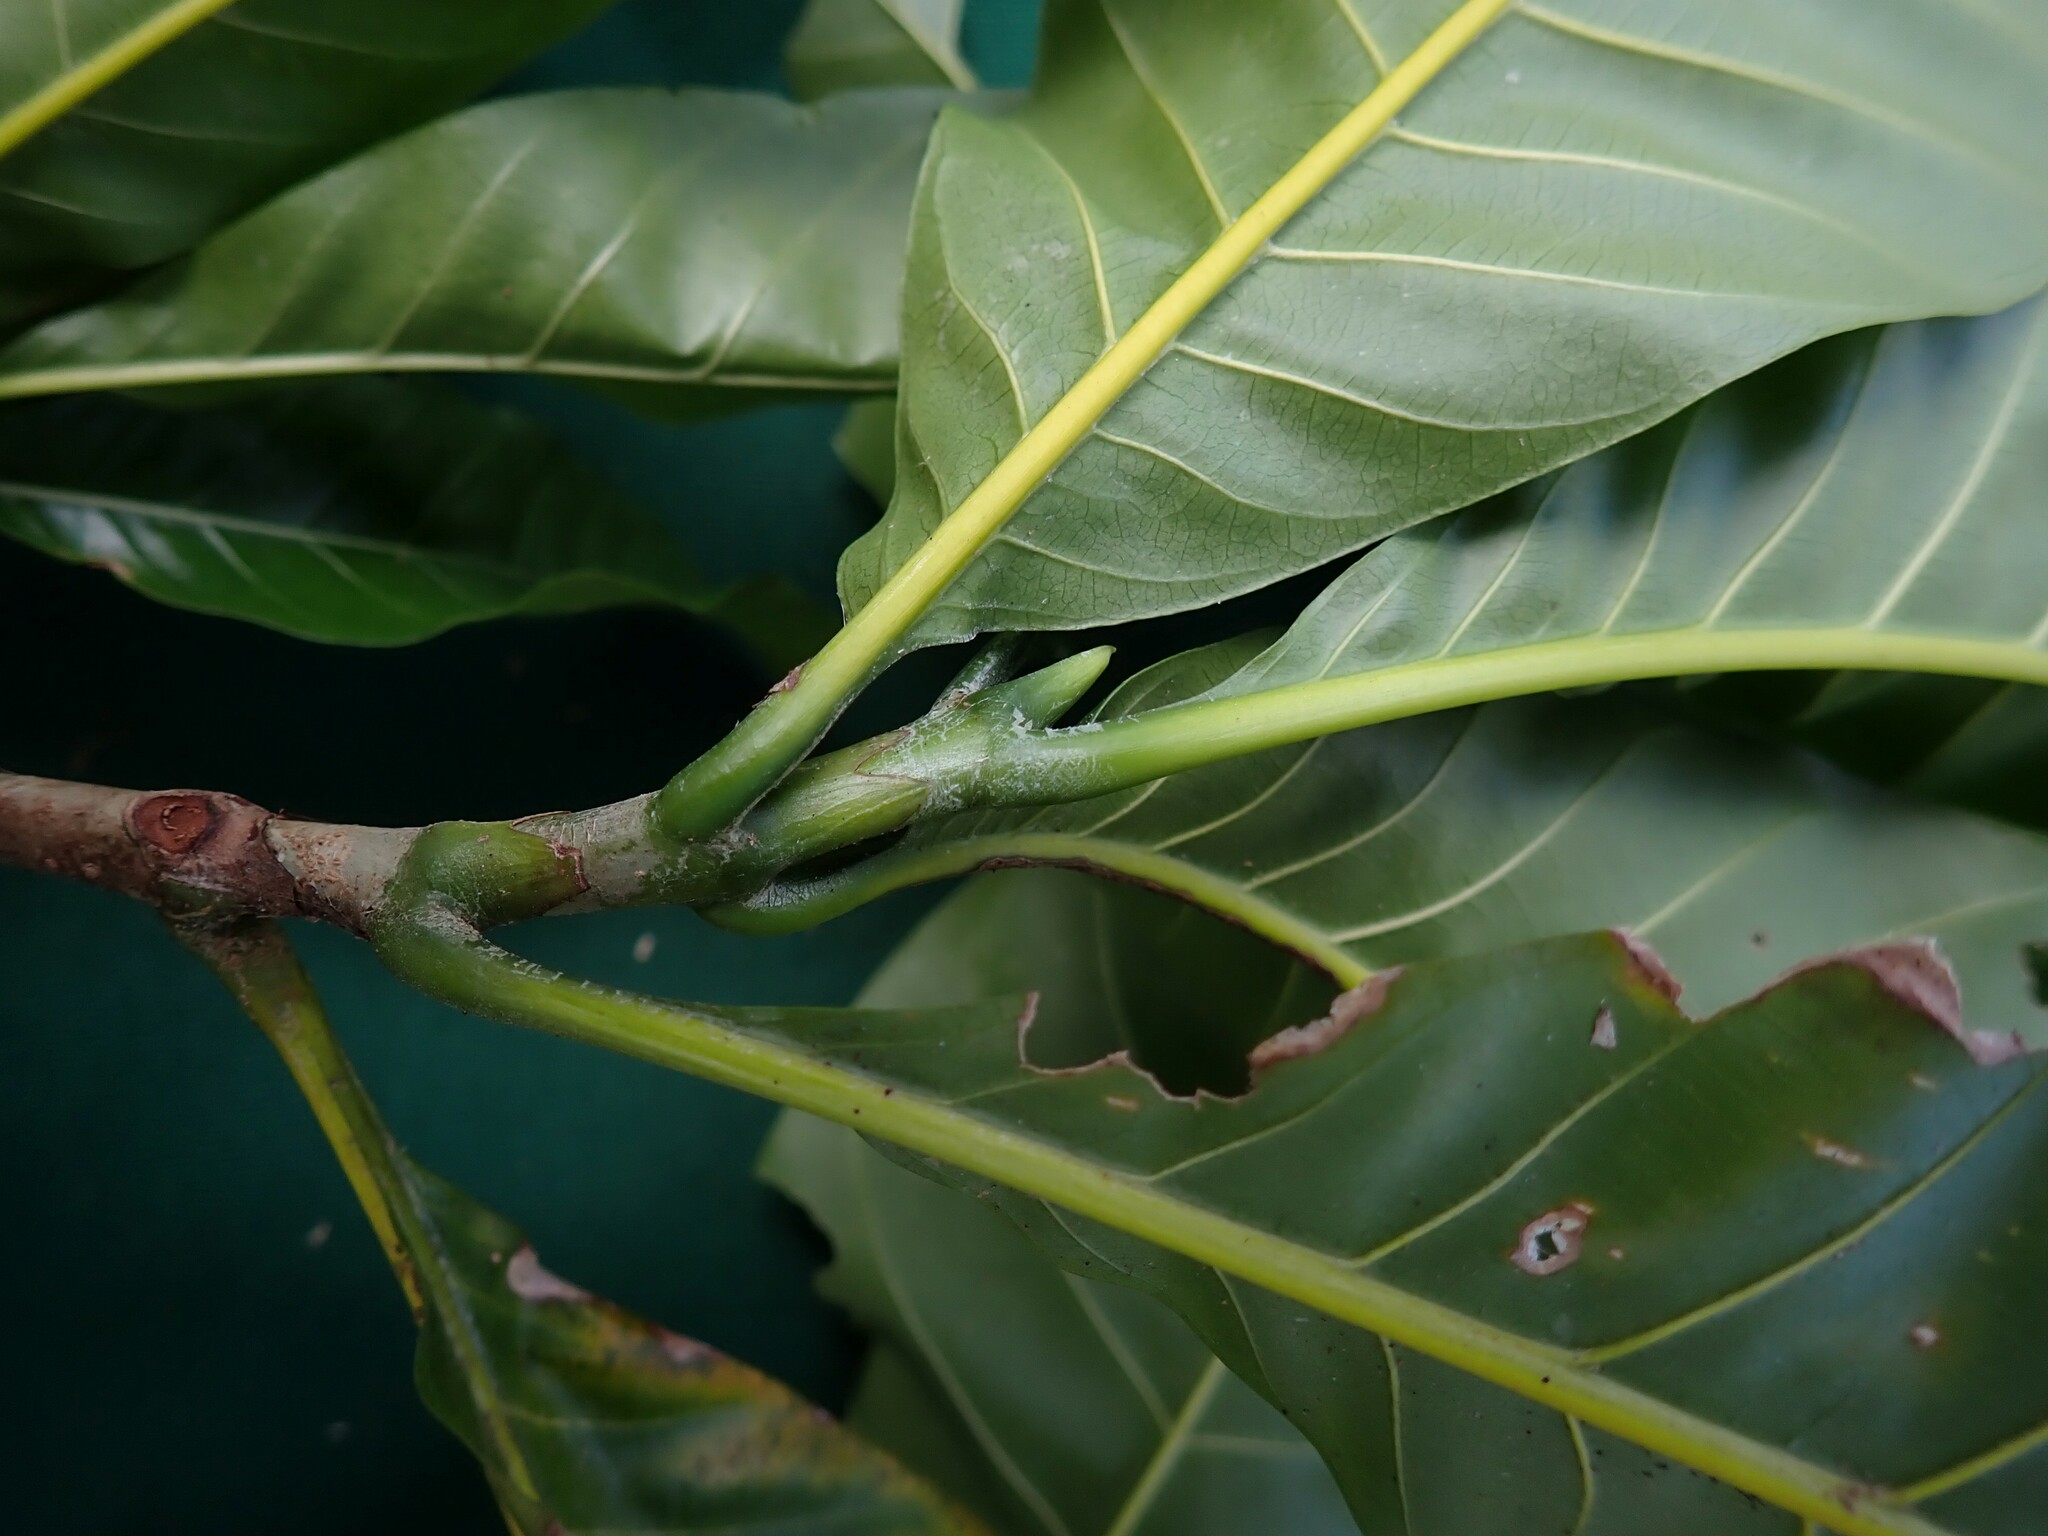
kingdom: Plantae
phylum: Tracheophyta
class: Magnoliopsida
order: Gentianales
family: Rubiaceae
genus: Gardenia
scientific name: Gardenia tannaensis
